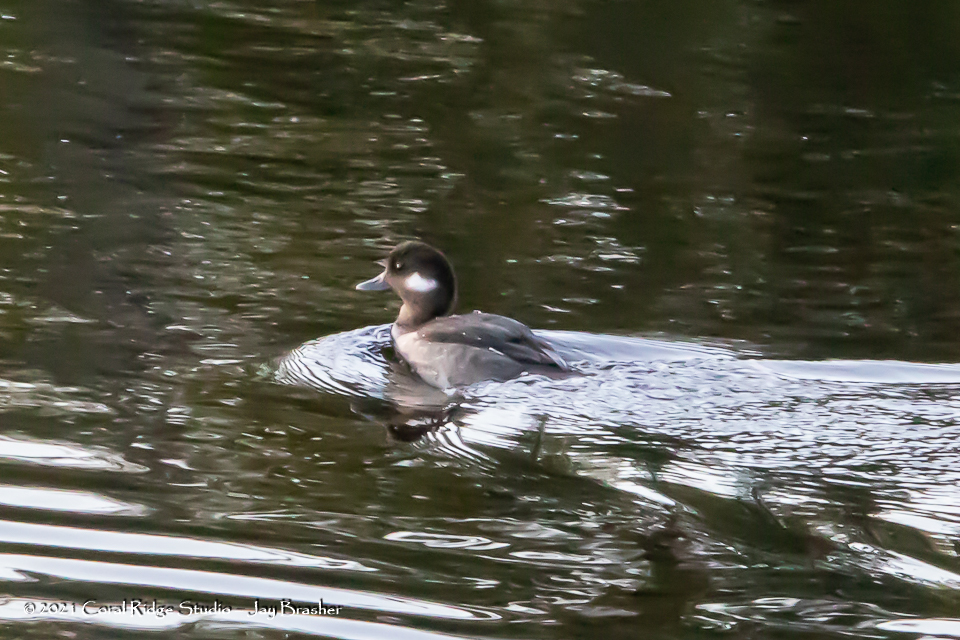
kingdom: Animalia
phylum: Chordata
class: Aves
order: Anseriformes
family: Anatidae
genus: Bucephala
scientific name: Bucephala albeola
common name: Bufflehead
